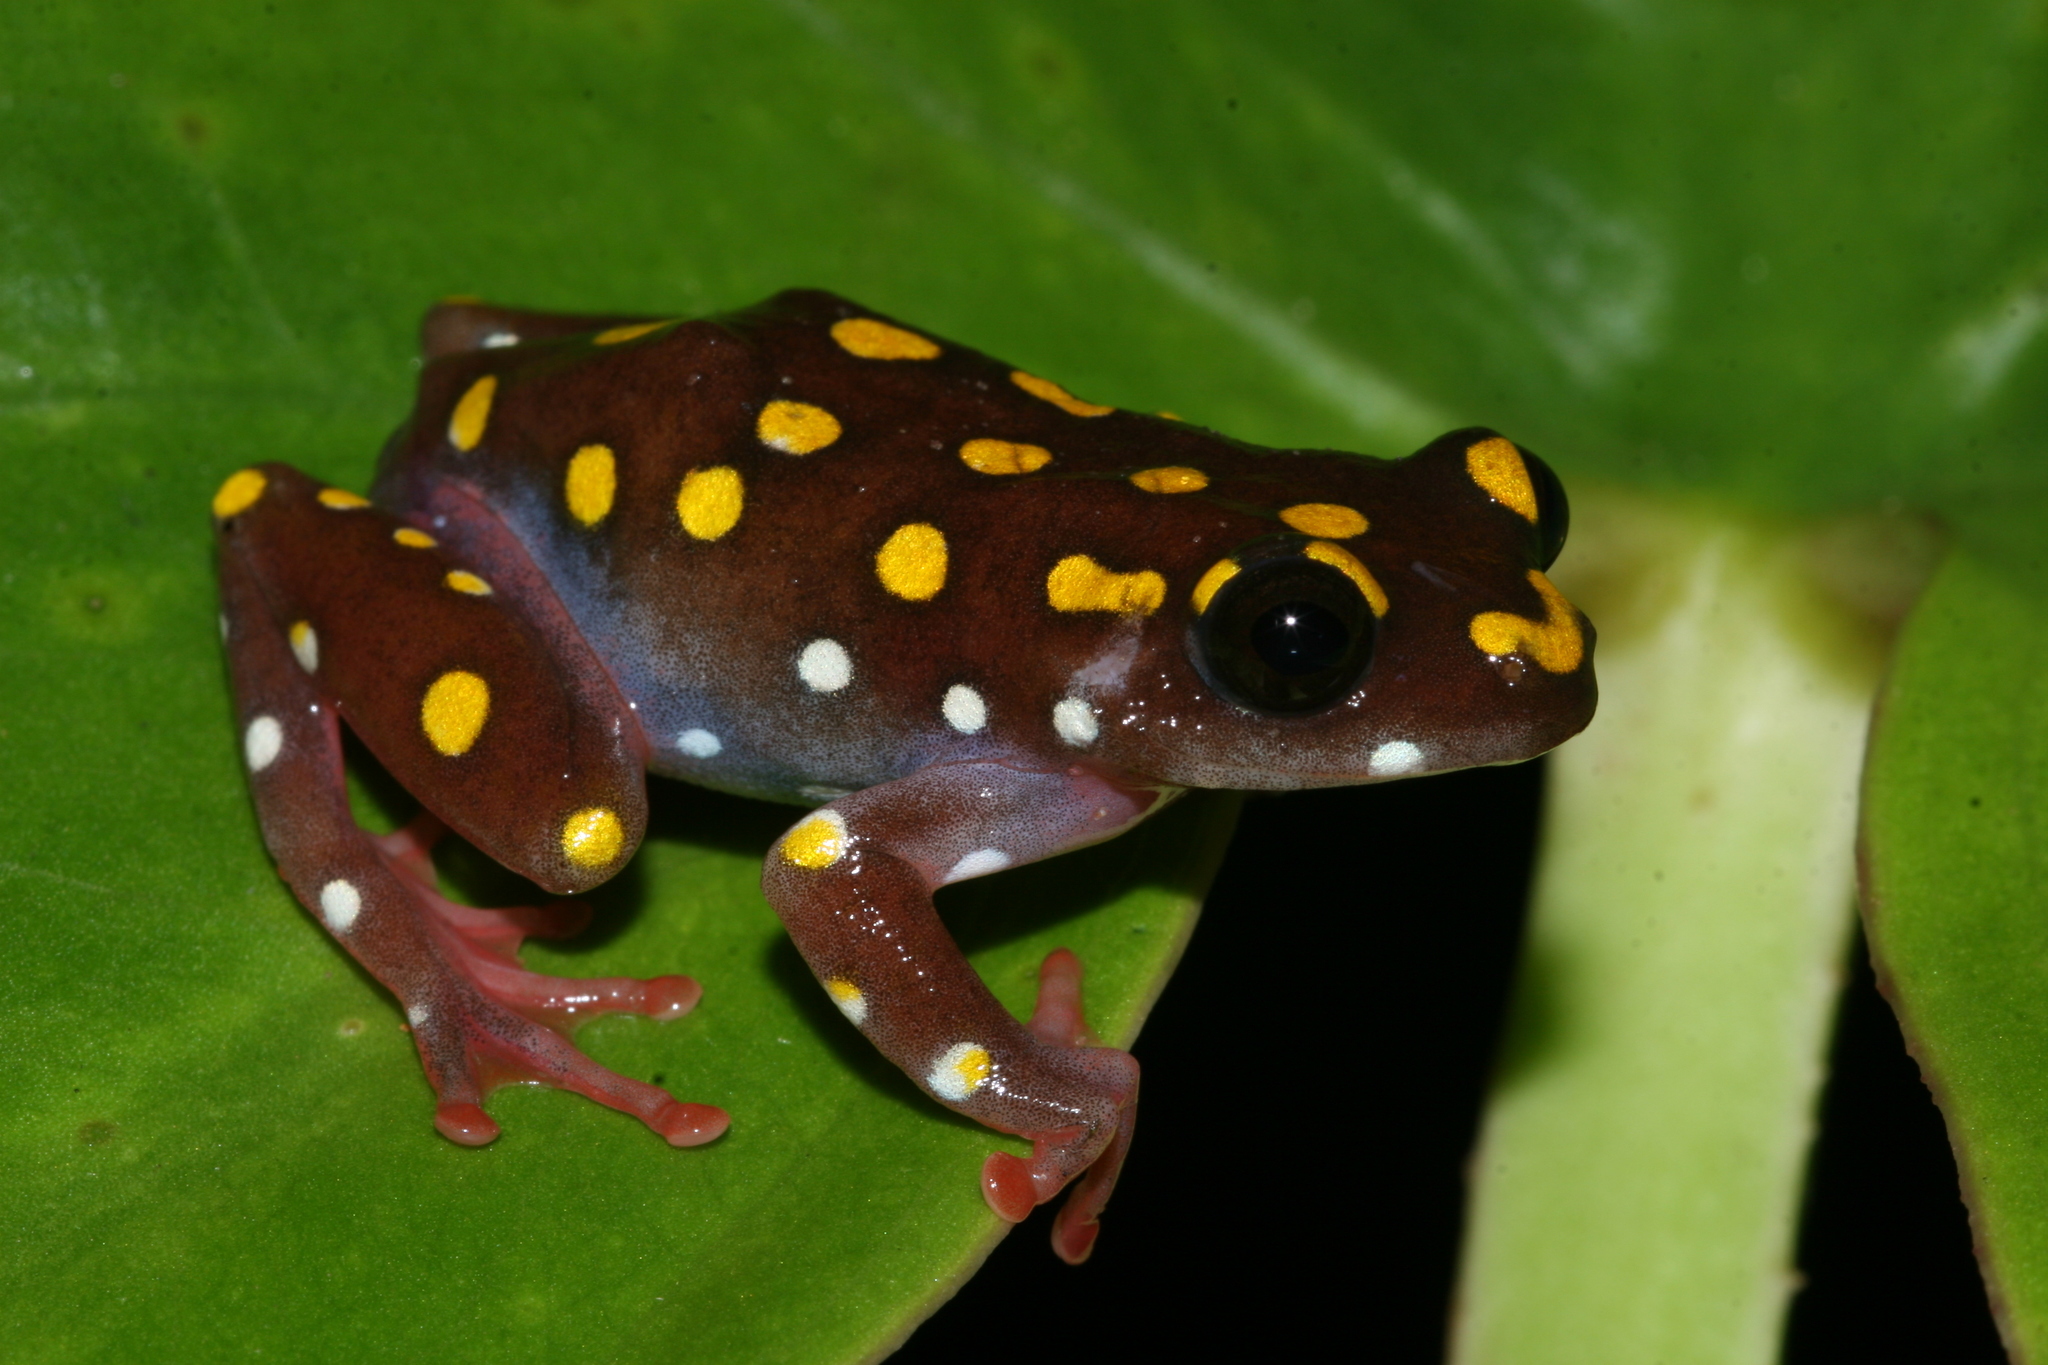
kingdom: Animalia
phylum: Chordata
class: Amphibia
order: Anura
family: Hyperoliidae
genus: Hyperolius
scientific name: Hyperolius pardalis
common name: Leopard reed frog
